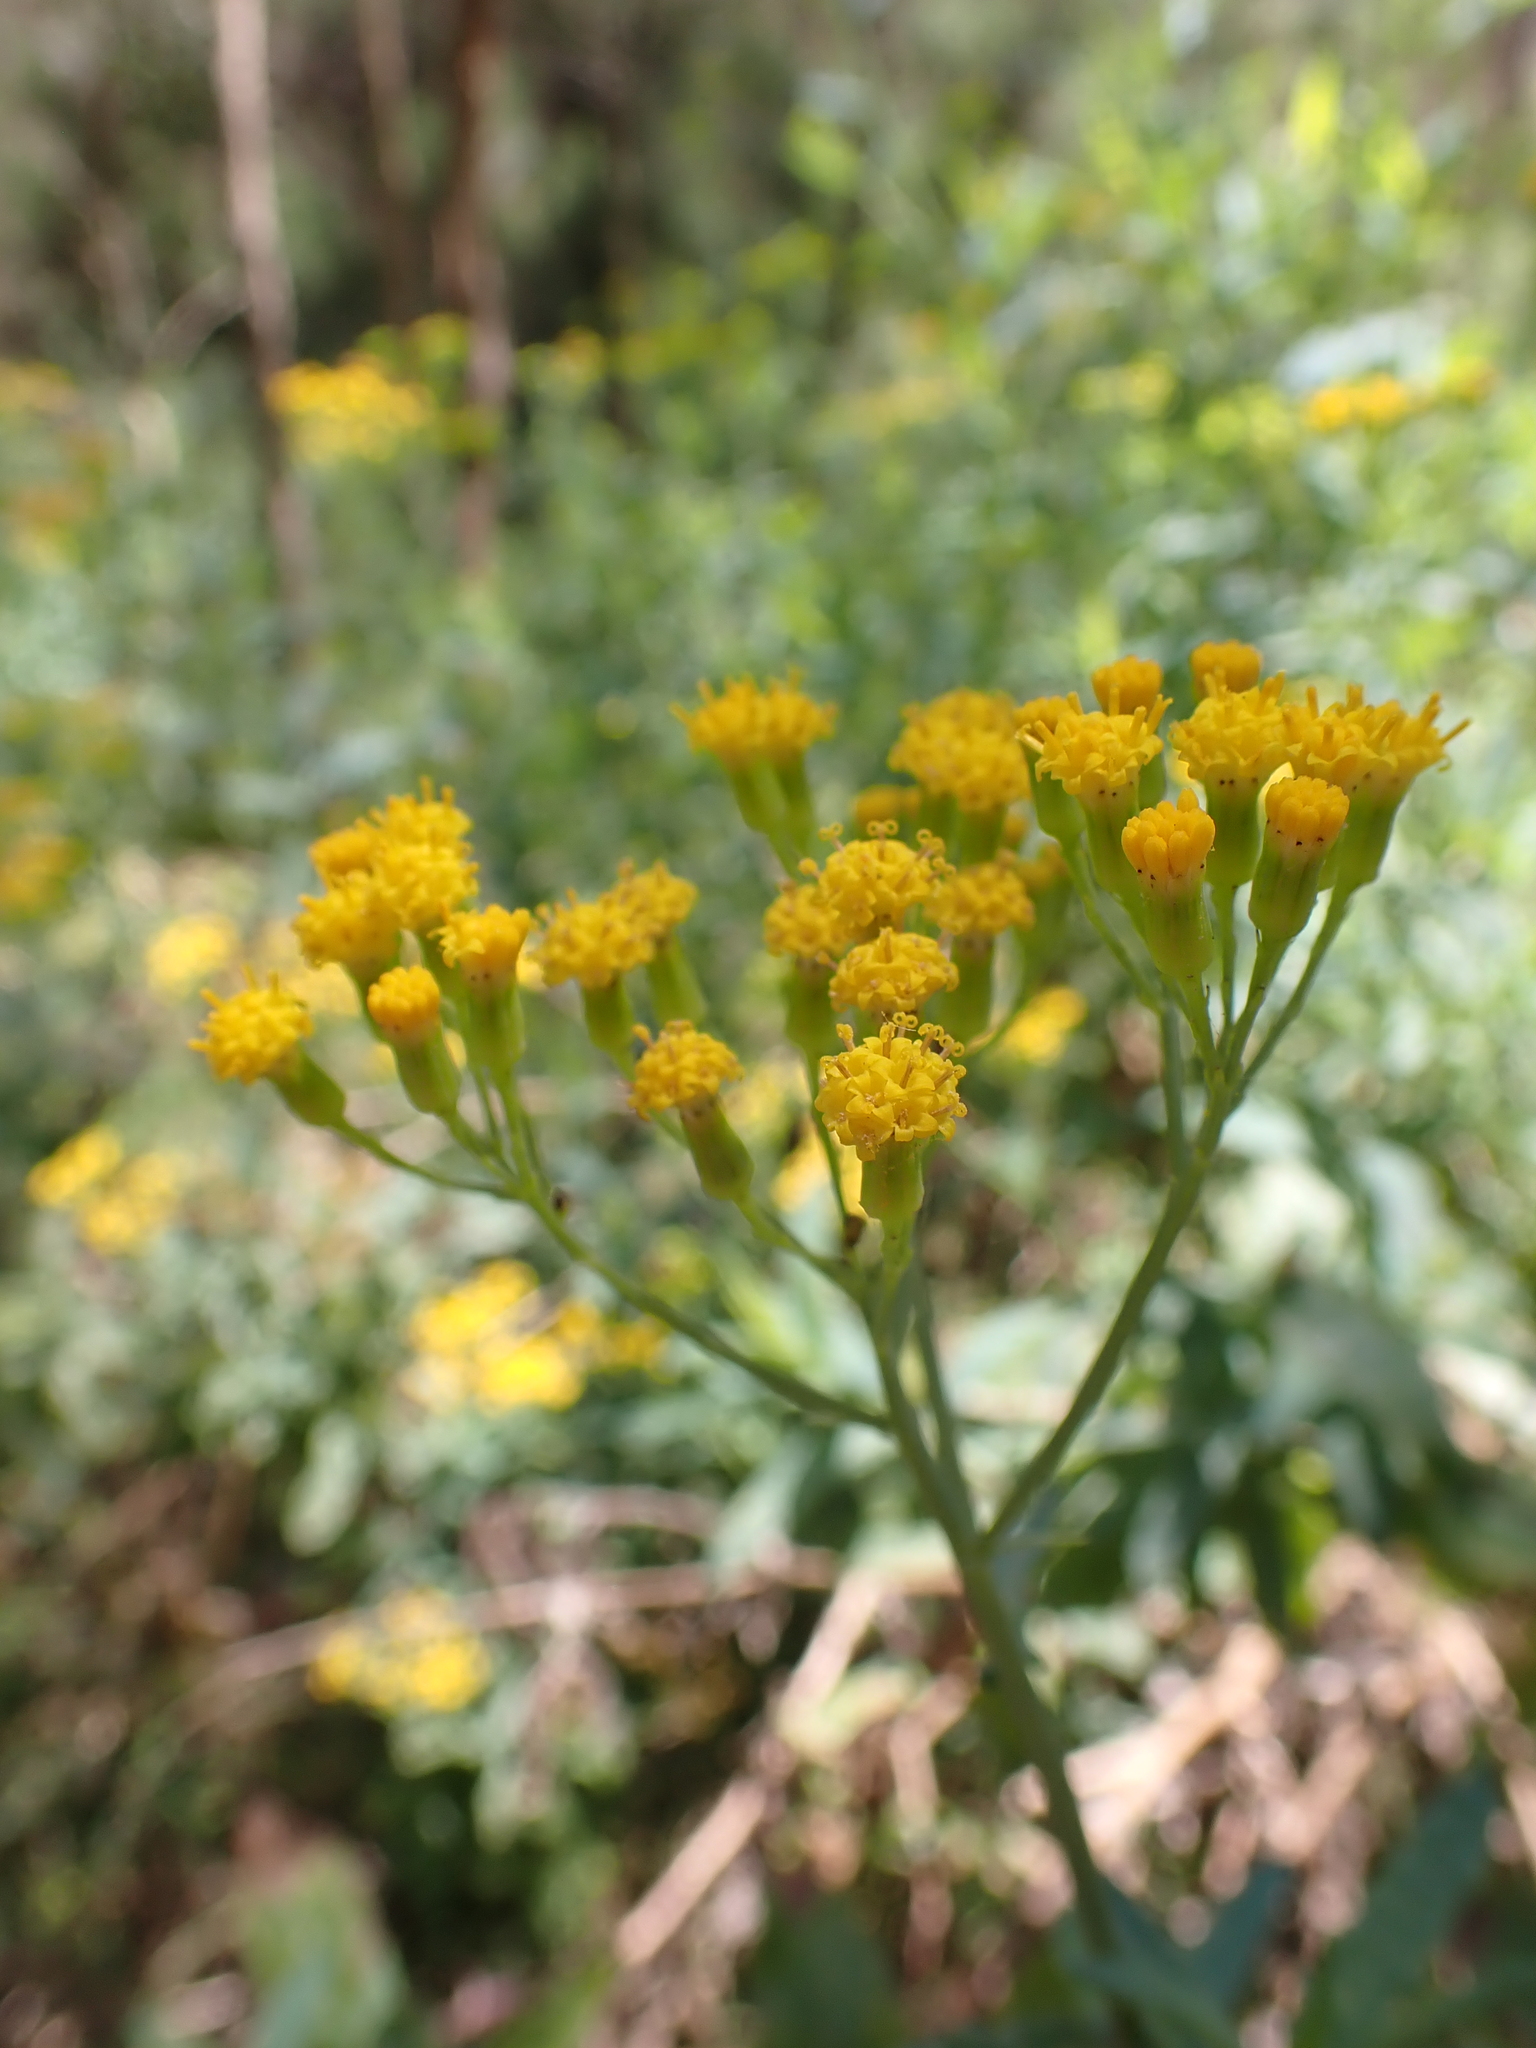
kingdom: Plantae
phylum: Tracheophyta
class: Magnoliopsida
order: Asterales
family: Asteraceae
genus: Senecio
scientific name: Senecio odoratus
